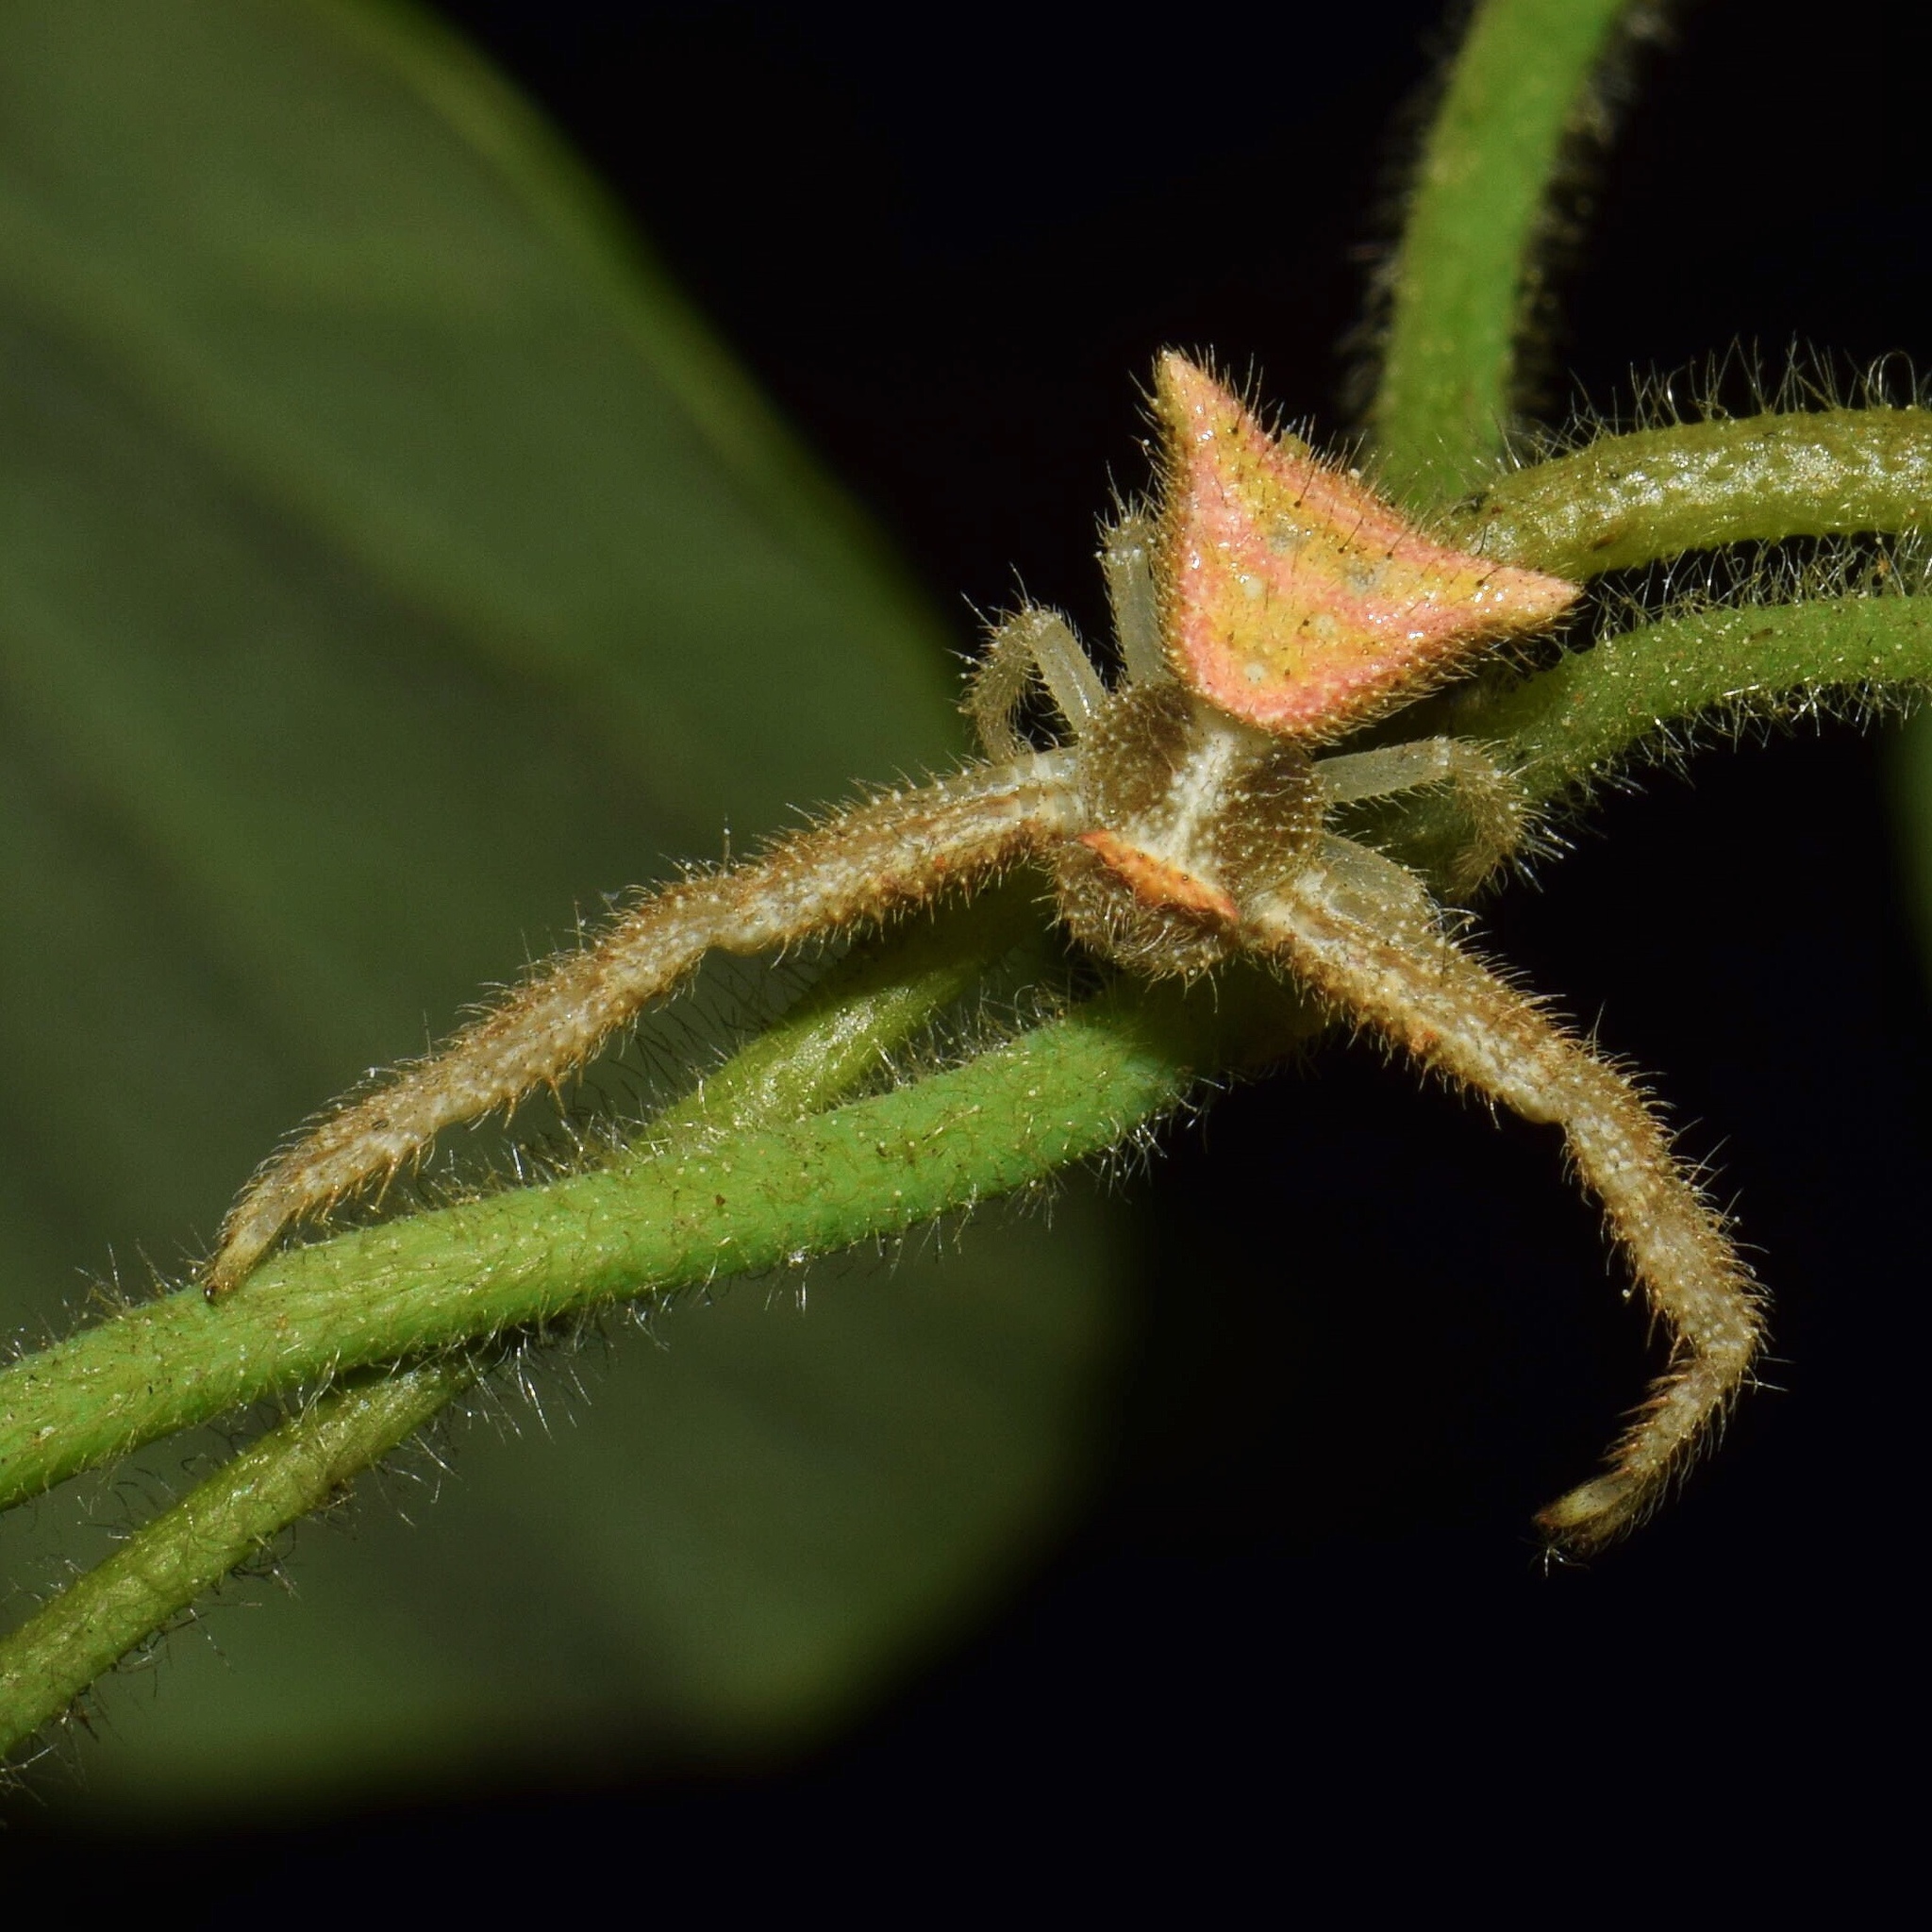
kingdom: Animalia
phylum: Arthropoda
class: Arachnida
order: Araneae
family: Thomisidae
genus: Thomisus
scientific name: Thomisus spiculosus
